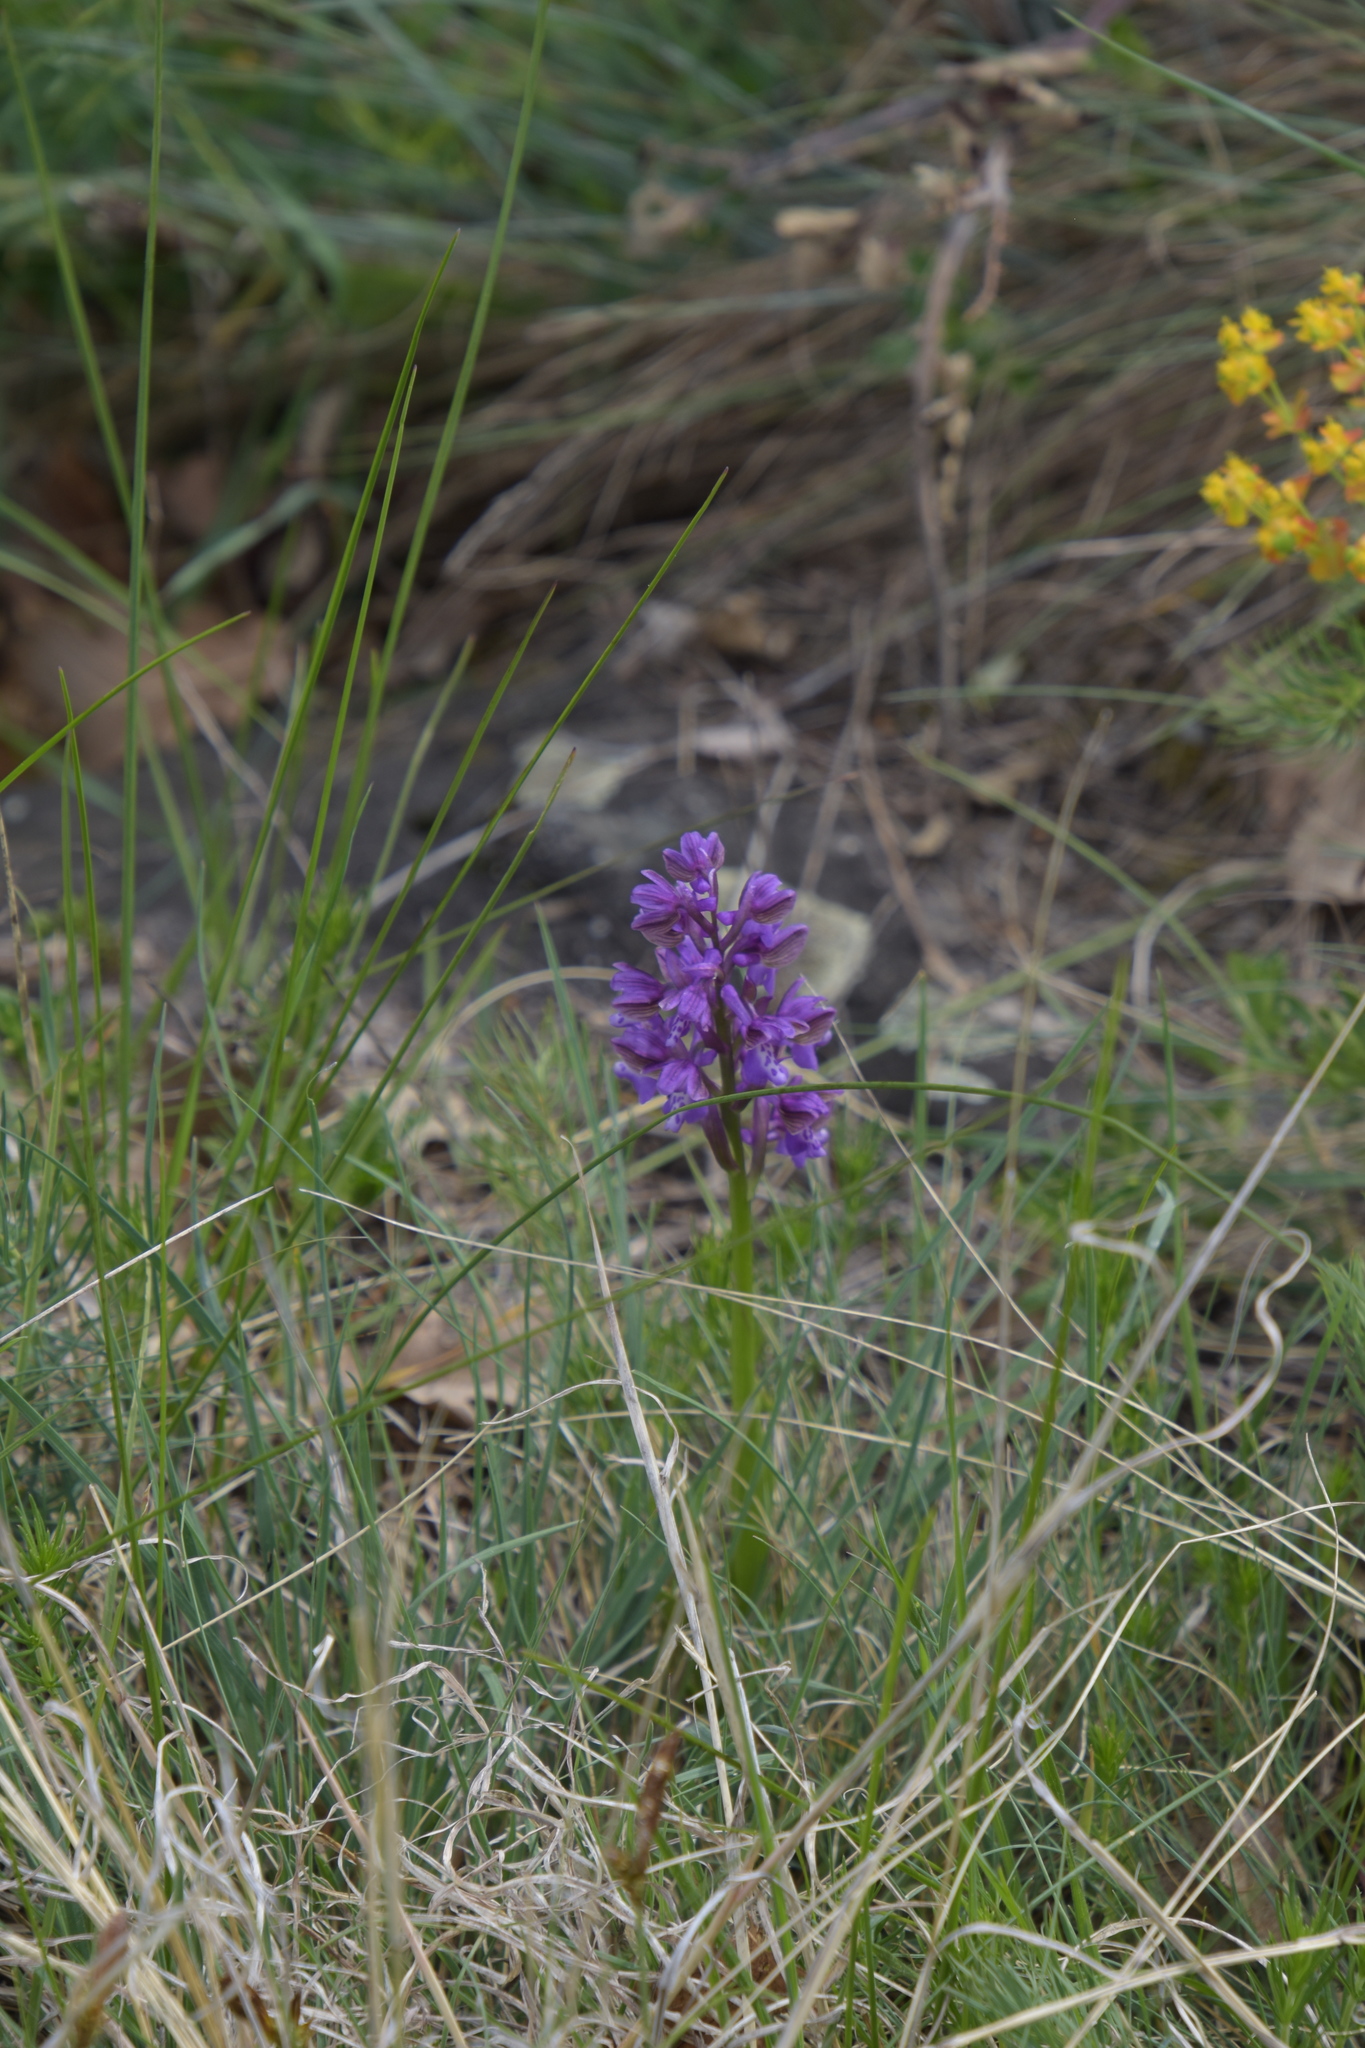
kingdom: Plantae
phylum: Tracheophyta
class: Liliopsida
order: Asparagales
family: Orchidaceae
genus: Anacamptis
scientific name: Anacamptis morio
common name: Green-winged orchid
